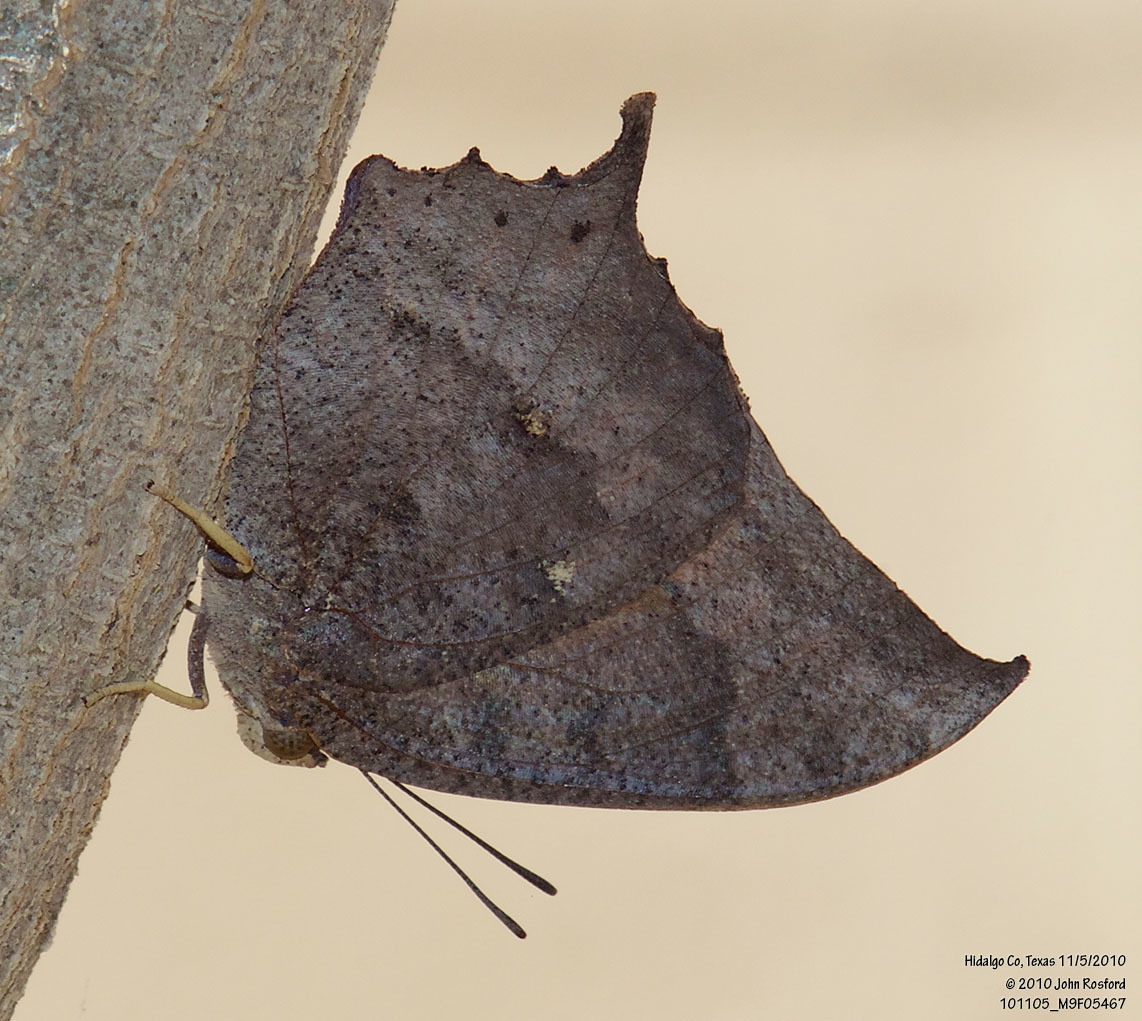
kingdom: Animalia
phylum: Arthropoda
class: Insecta
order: Lepidoptera
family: Nymphalidae
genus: Anaea
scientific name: Anaea aidea
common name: Tropical leafwing
